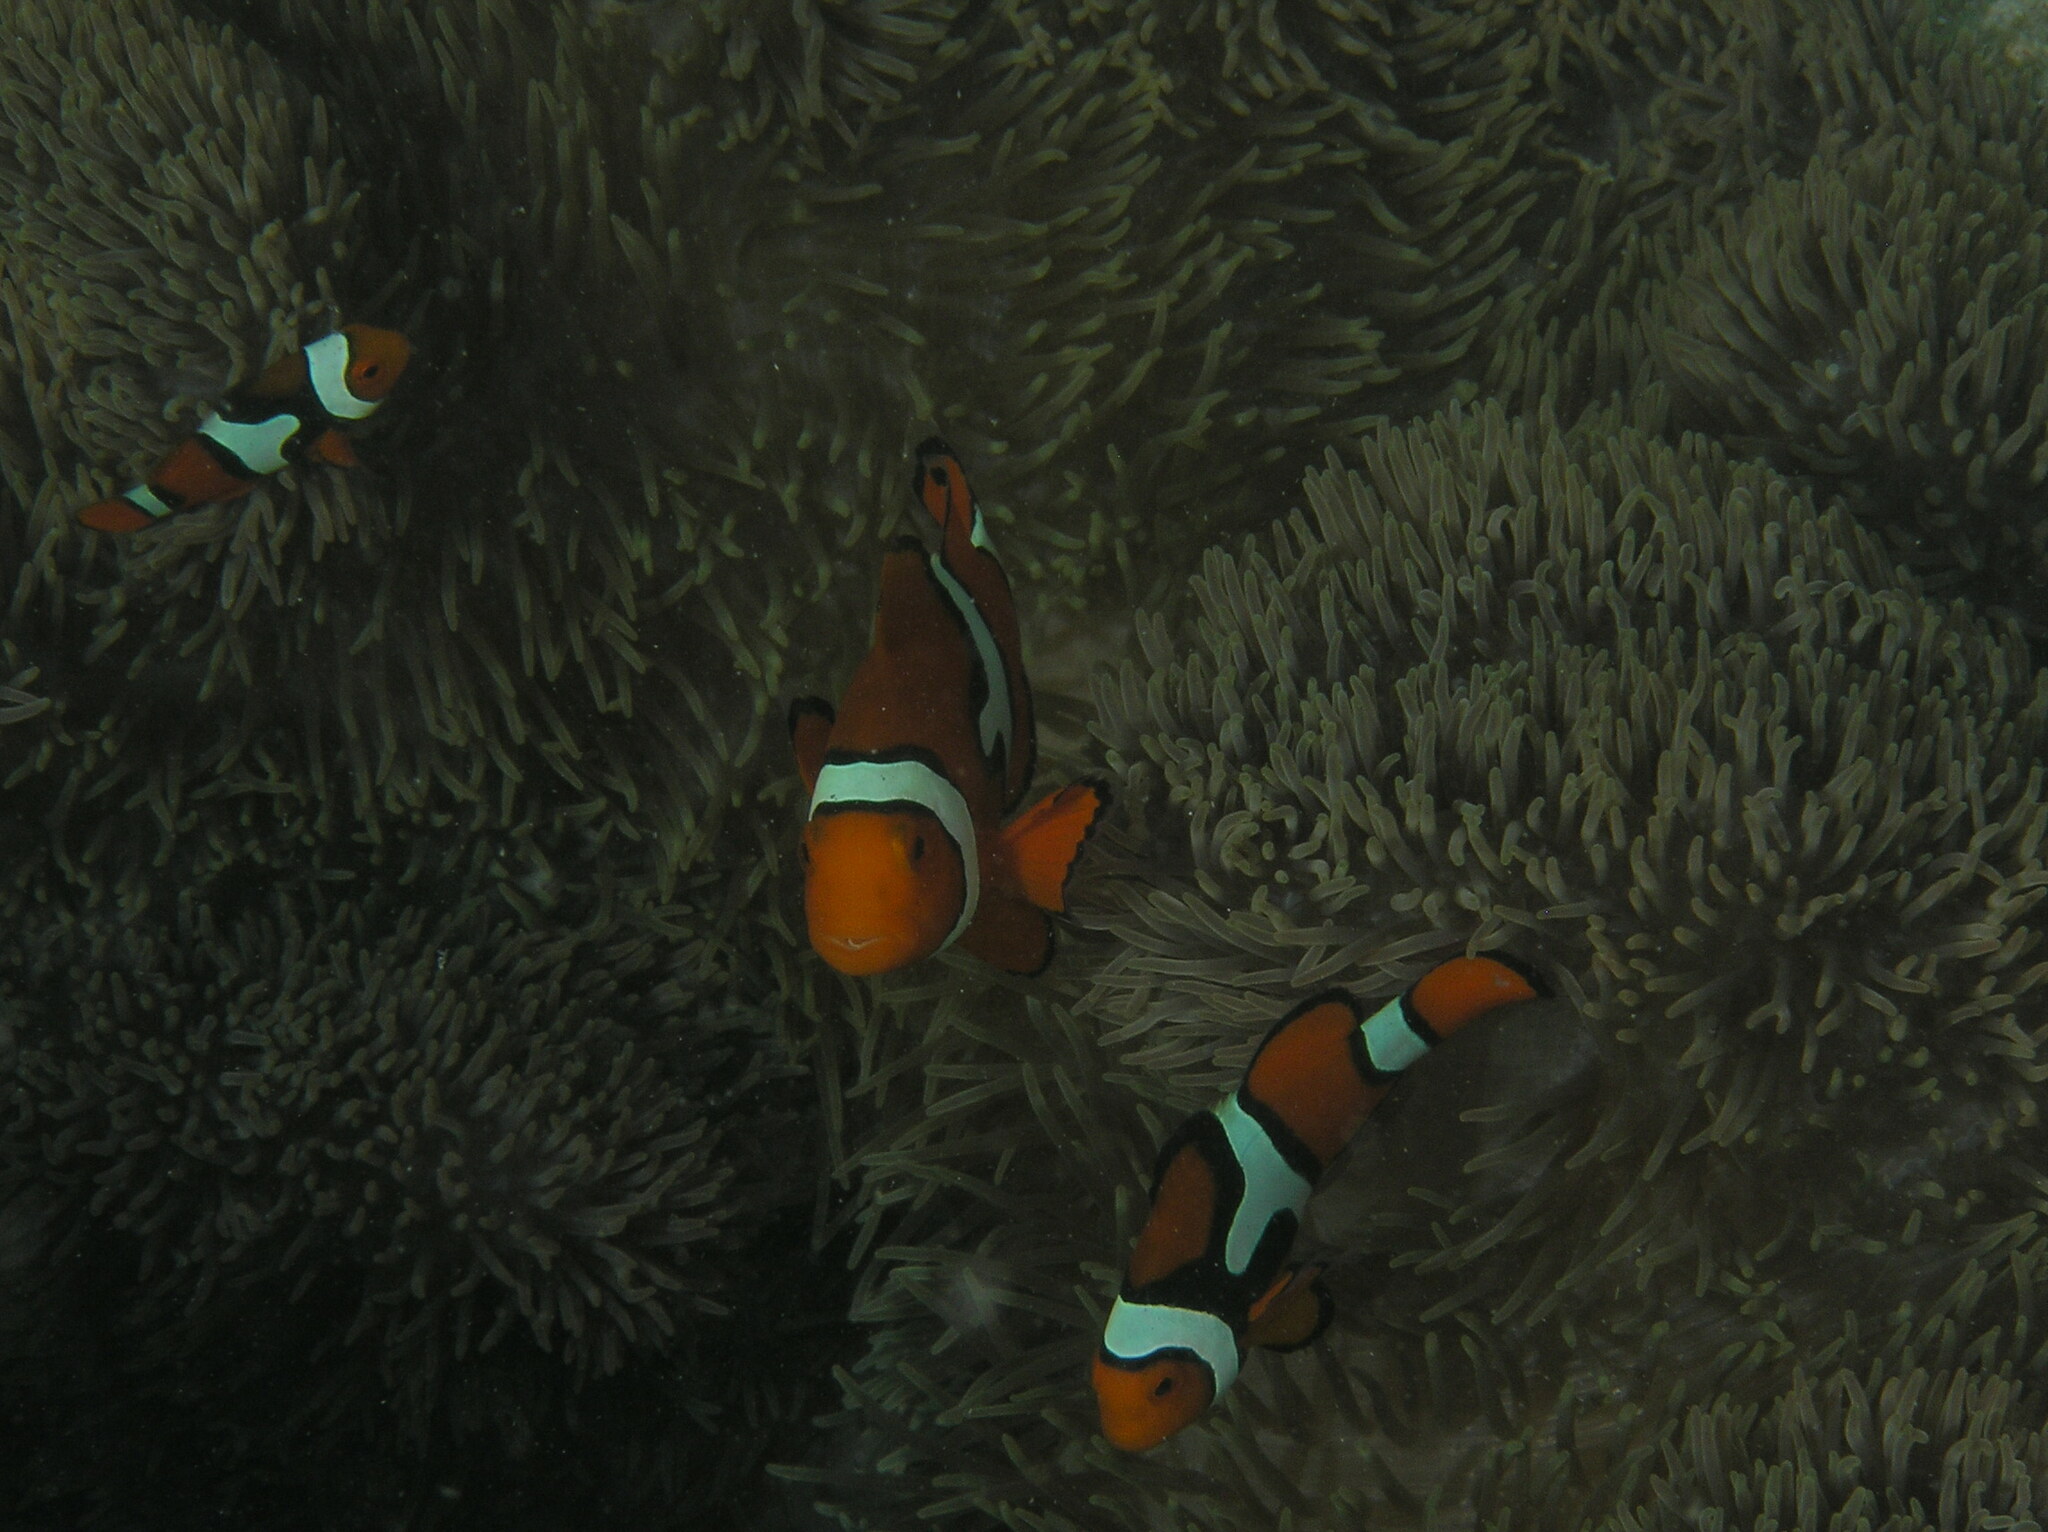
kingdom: Animalia
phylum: Chordata
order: Perciformes
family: Pomacentridae
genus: Amphiprion
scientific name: Amphiprion percula
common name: Clown anemonefish
